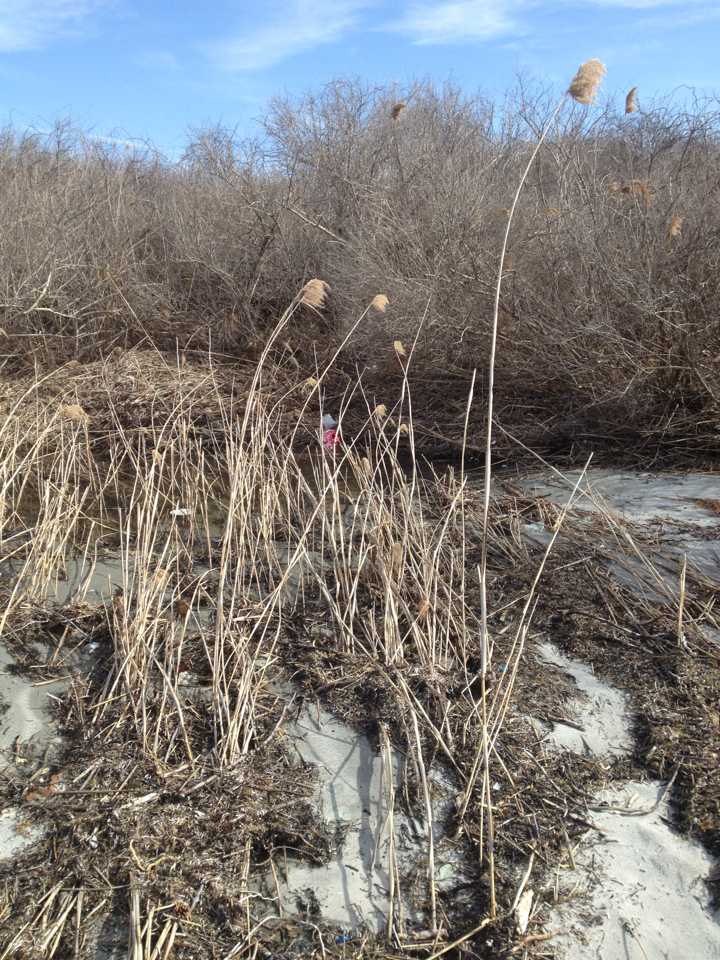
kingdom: Plantae
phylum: Tracheophyta
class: Liliopsida
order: Poales
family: Poaceae
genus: Phragmites
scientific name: Phragmites australis
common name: Common reed
